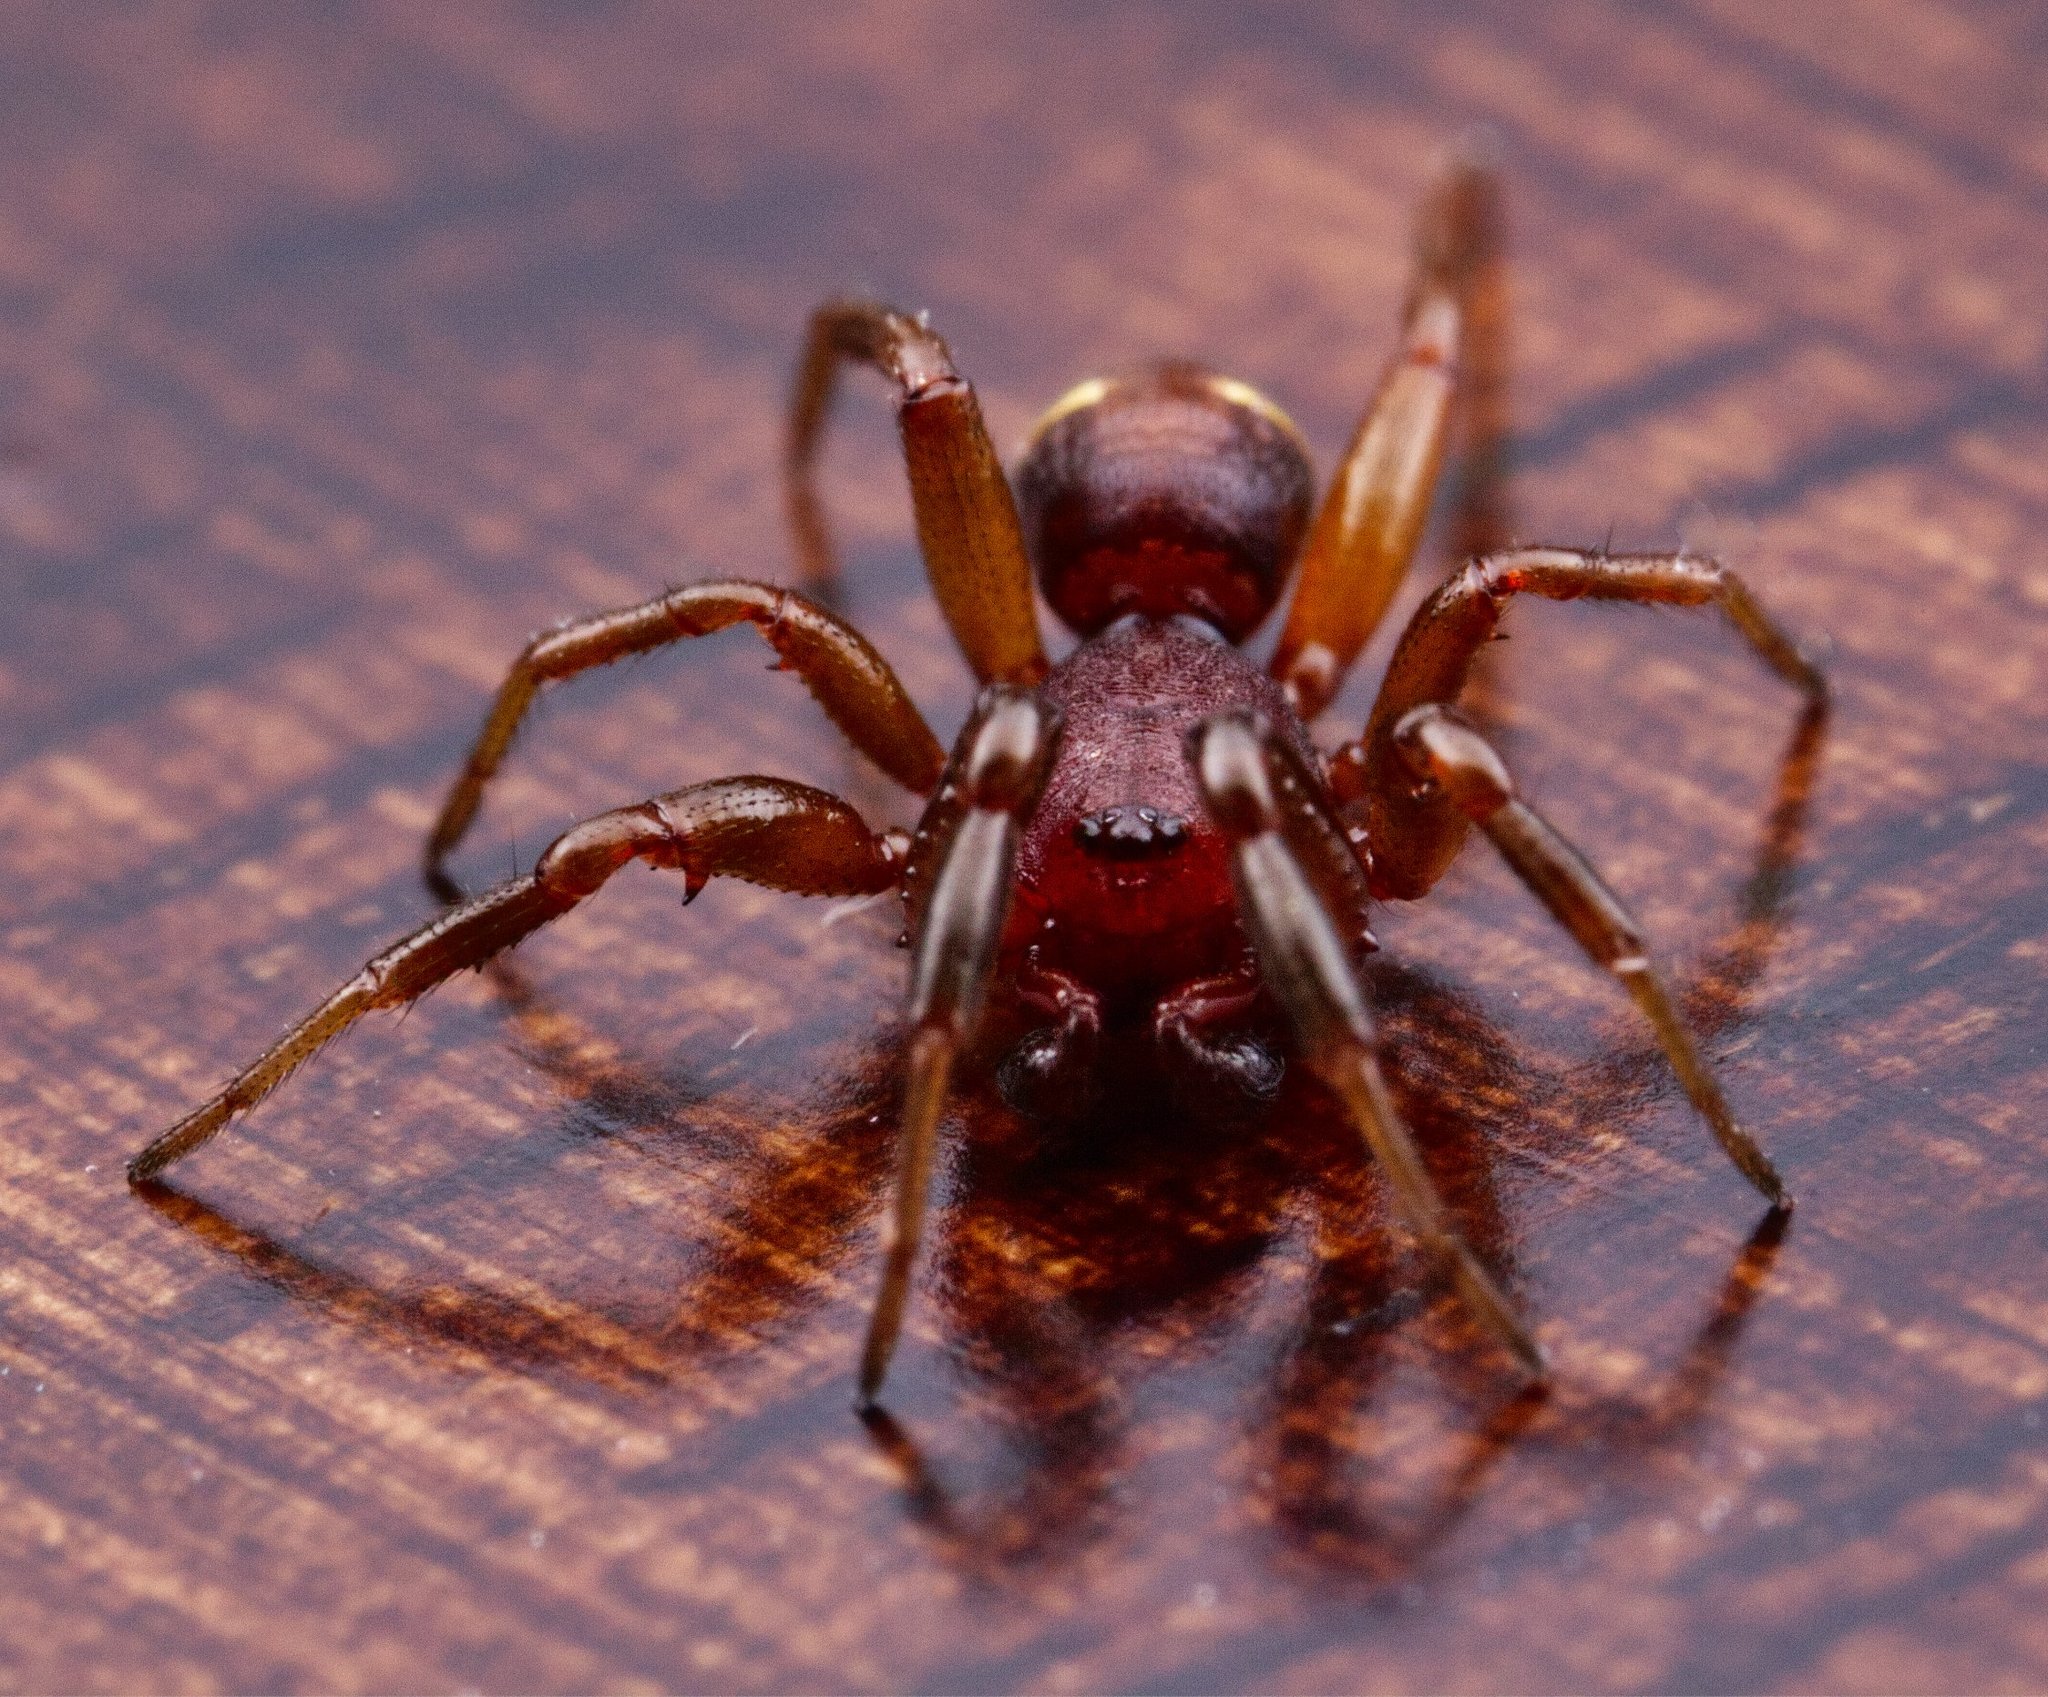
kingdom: Animalia
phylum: Arthropoda
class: Arachnida
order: Araneae
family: Theridiidae
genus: Asagena
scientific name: Asagena americana
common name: Two-spotted cobweb spider
